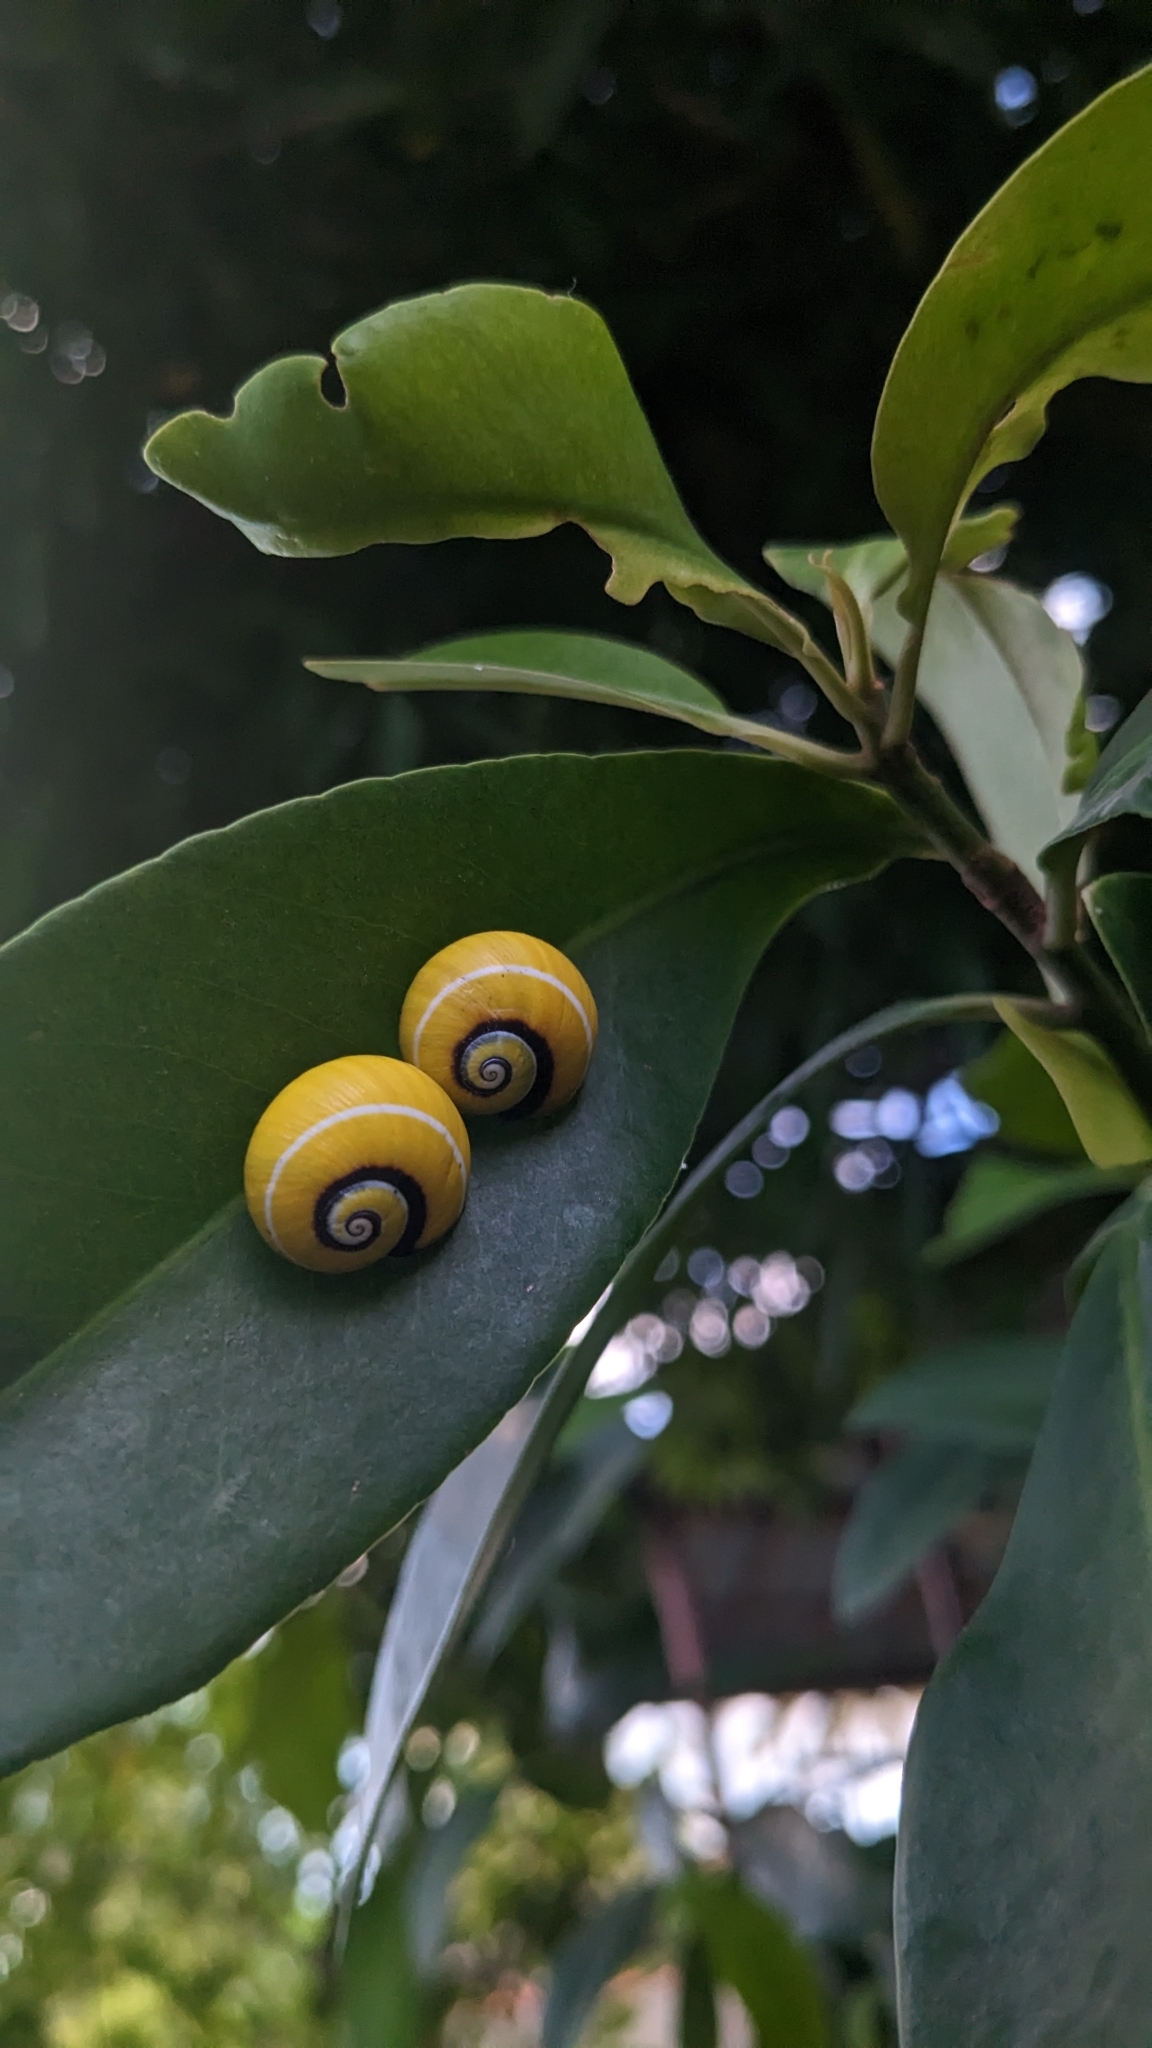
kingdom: Animalia
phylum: Mollusca
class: Gastropoda
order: Stylommatophora
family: Cepolidae
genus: Polymita
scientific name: Polymita picta
